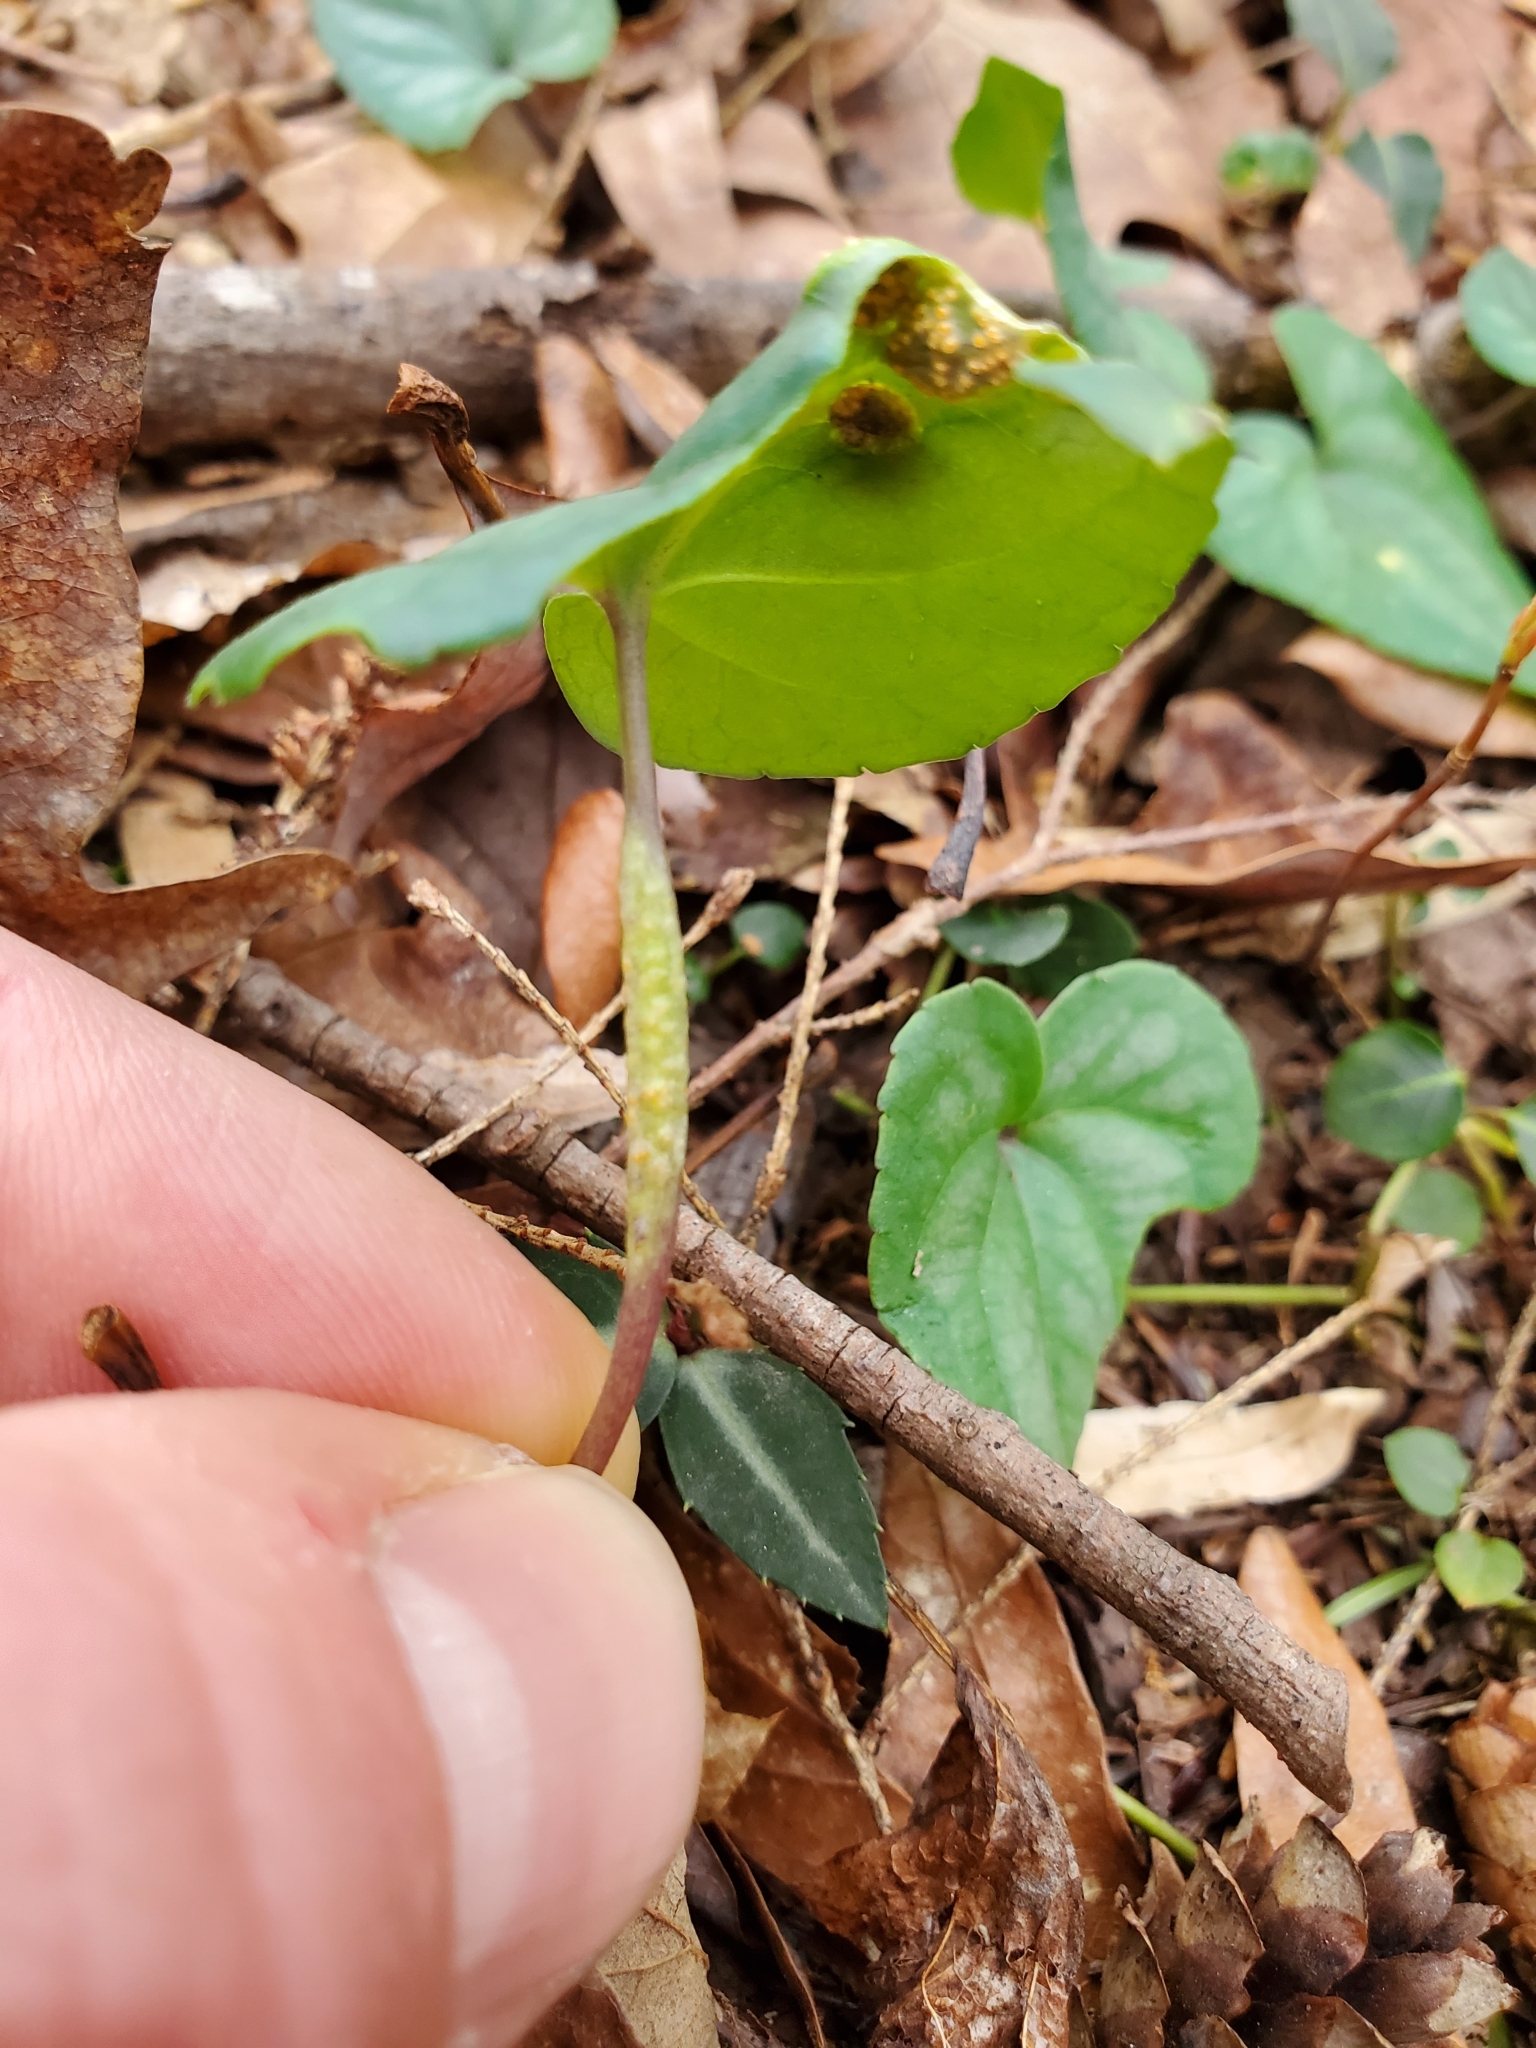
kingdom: Fungi
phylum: Basidiomycota
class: Pucciniomycetes
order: Pucciniales
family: Pucciniaceae
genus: Puccinia
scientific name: Puccinia violae
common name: Violet rust
